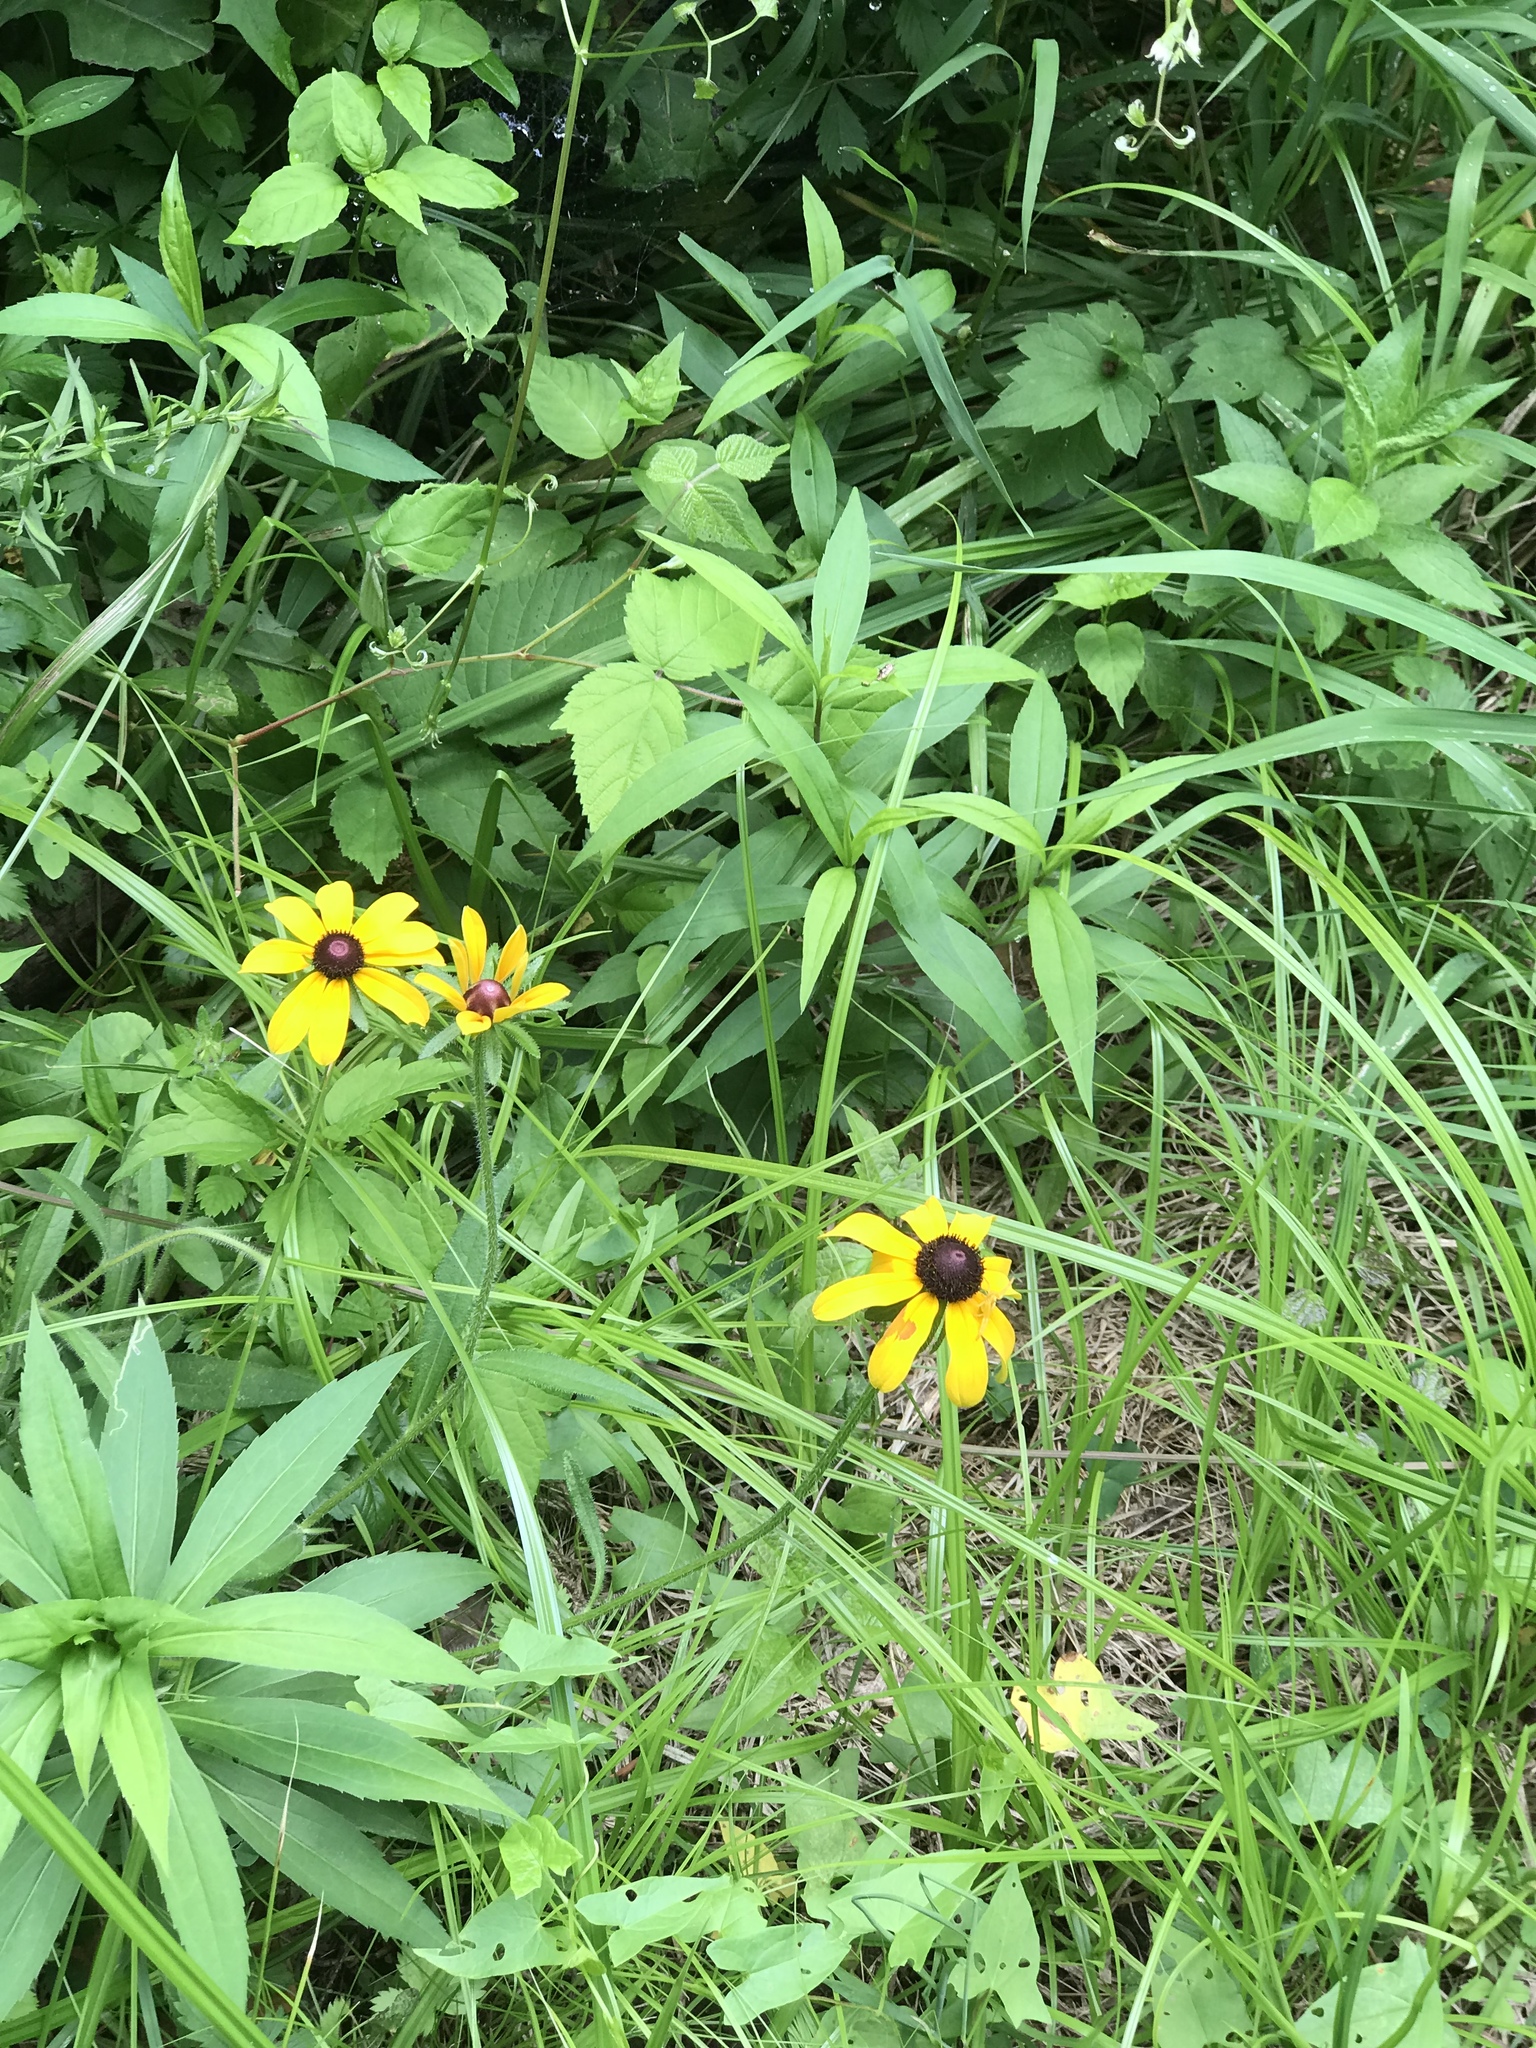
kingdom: Plantae
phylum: Tracheophyta
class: Magnoliopsida
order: Asterales
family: Asteraceae
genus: Rudbeckia
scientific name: Rudbeckia hirta
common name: Black-eyed-susan
